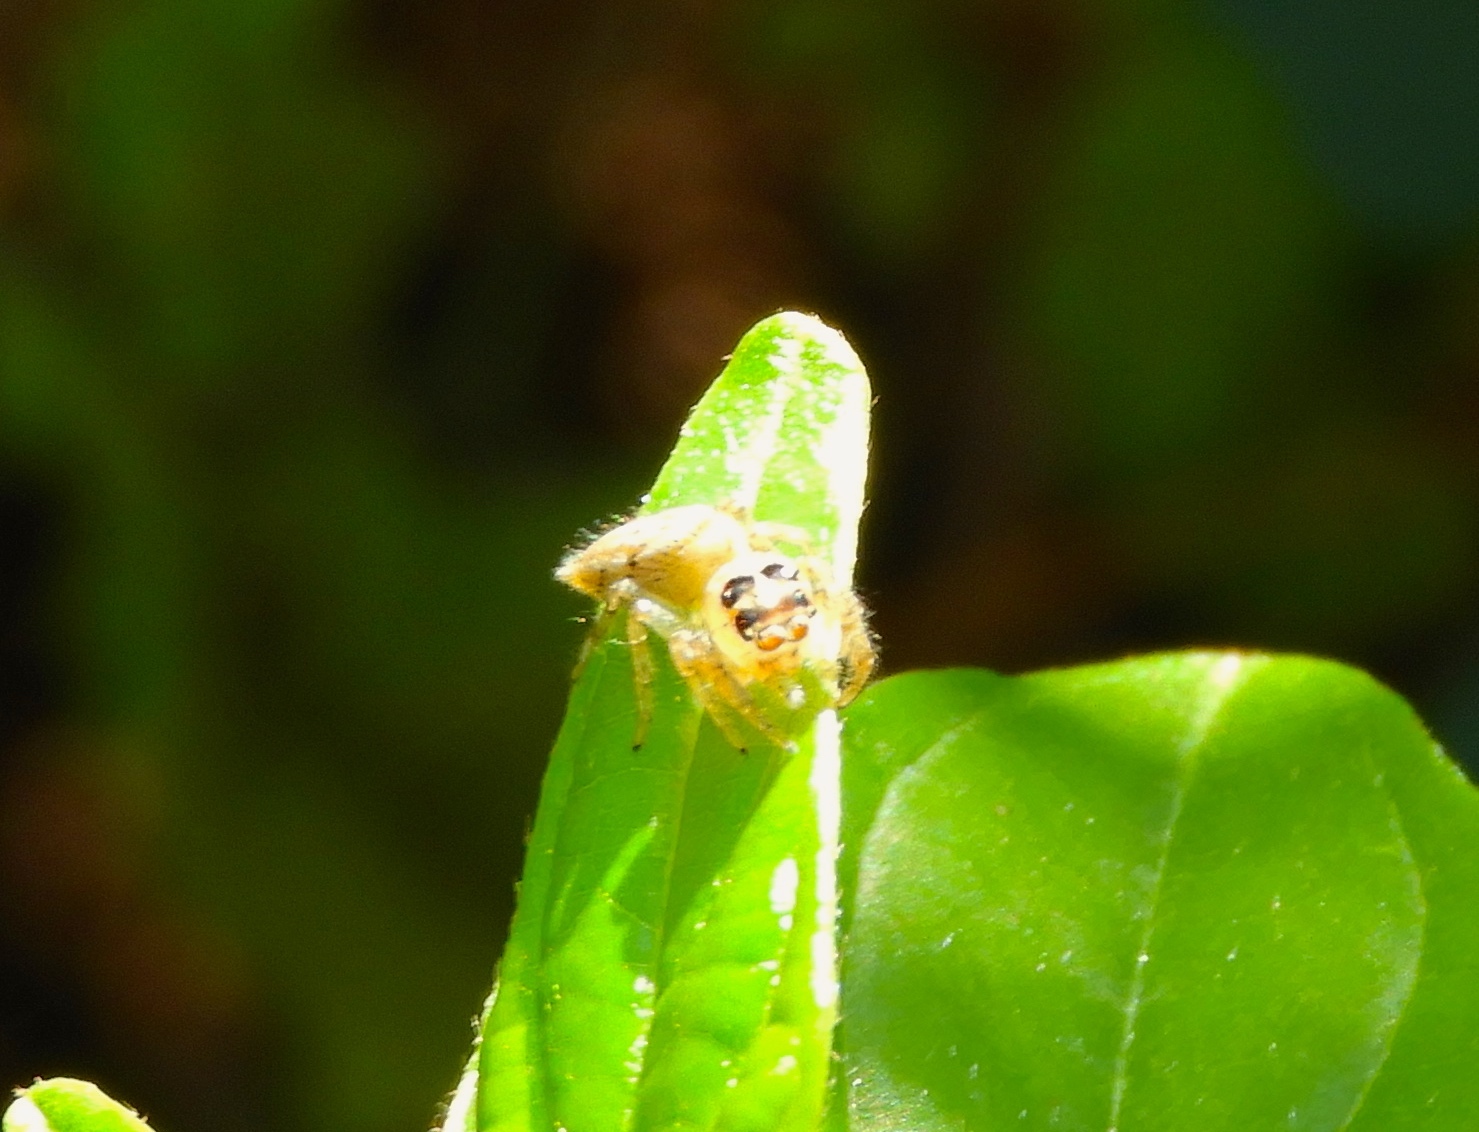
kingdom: Animalia
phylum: Arthropoda
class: Arachnida
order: Araneae
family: Salticidae
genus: Colonus
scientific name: Colonus
